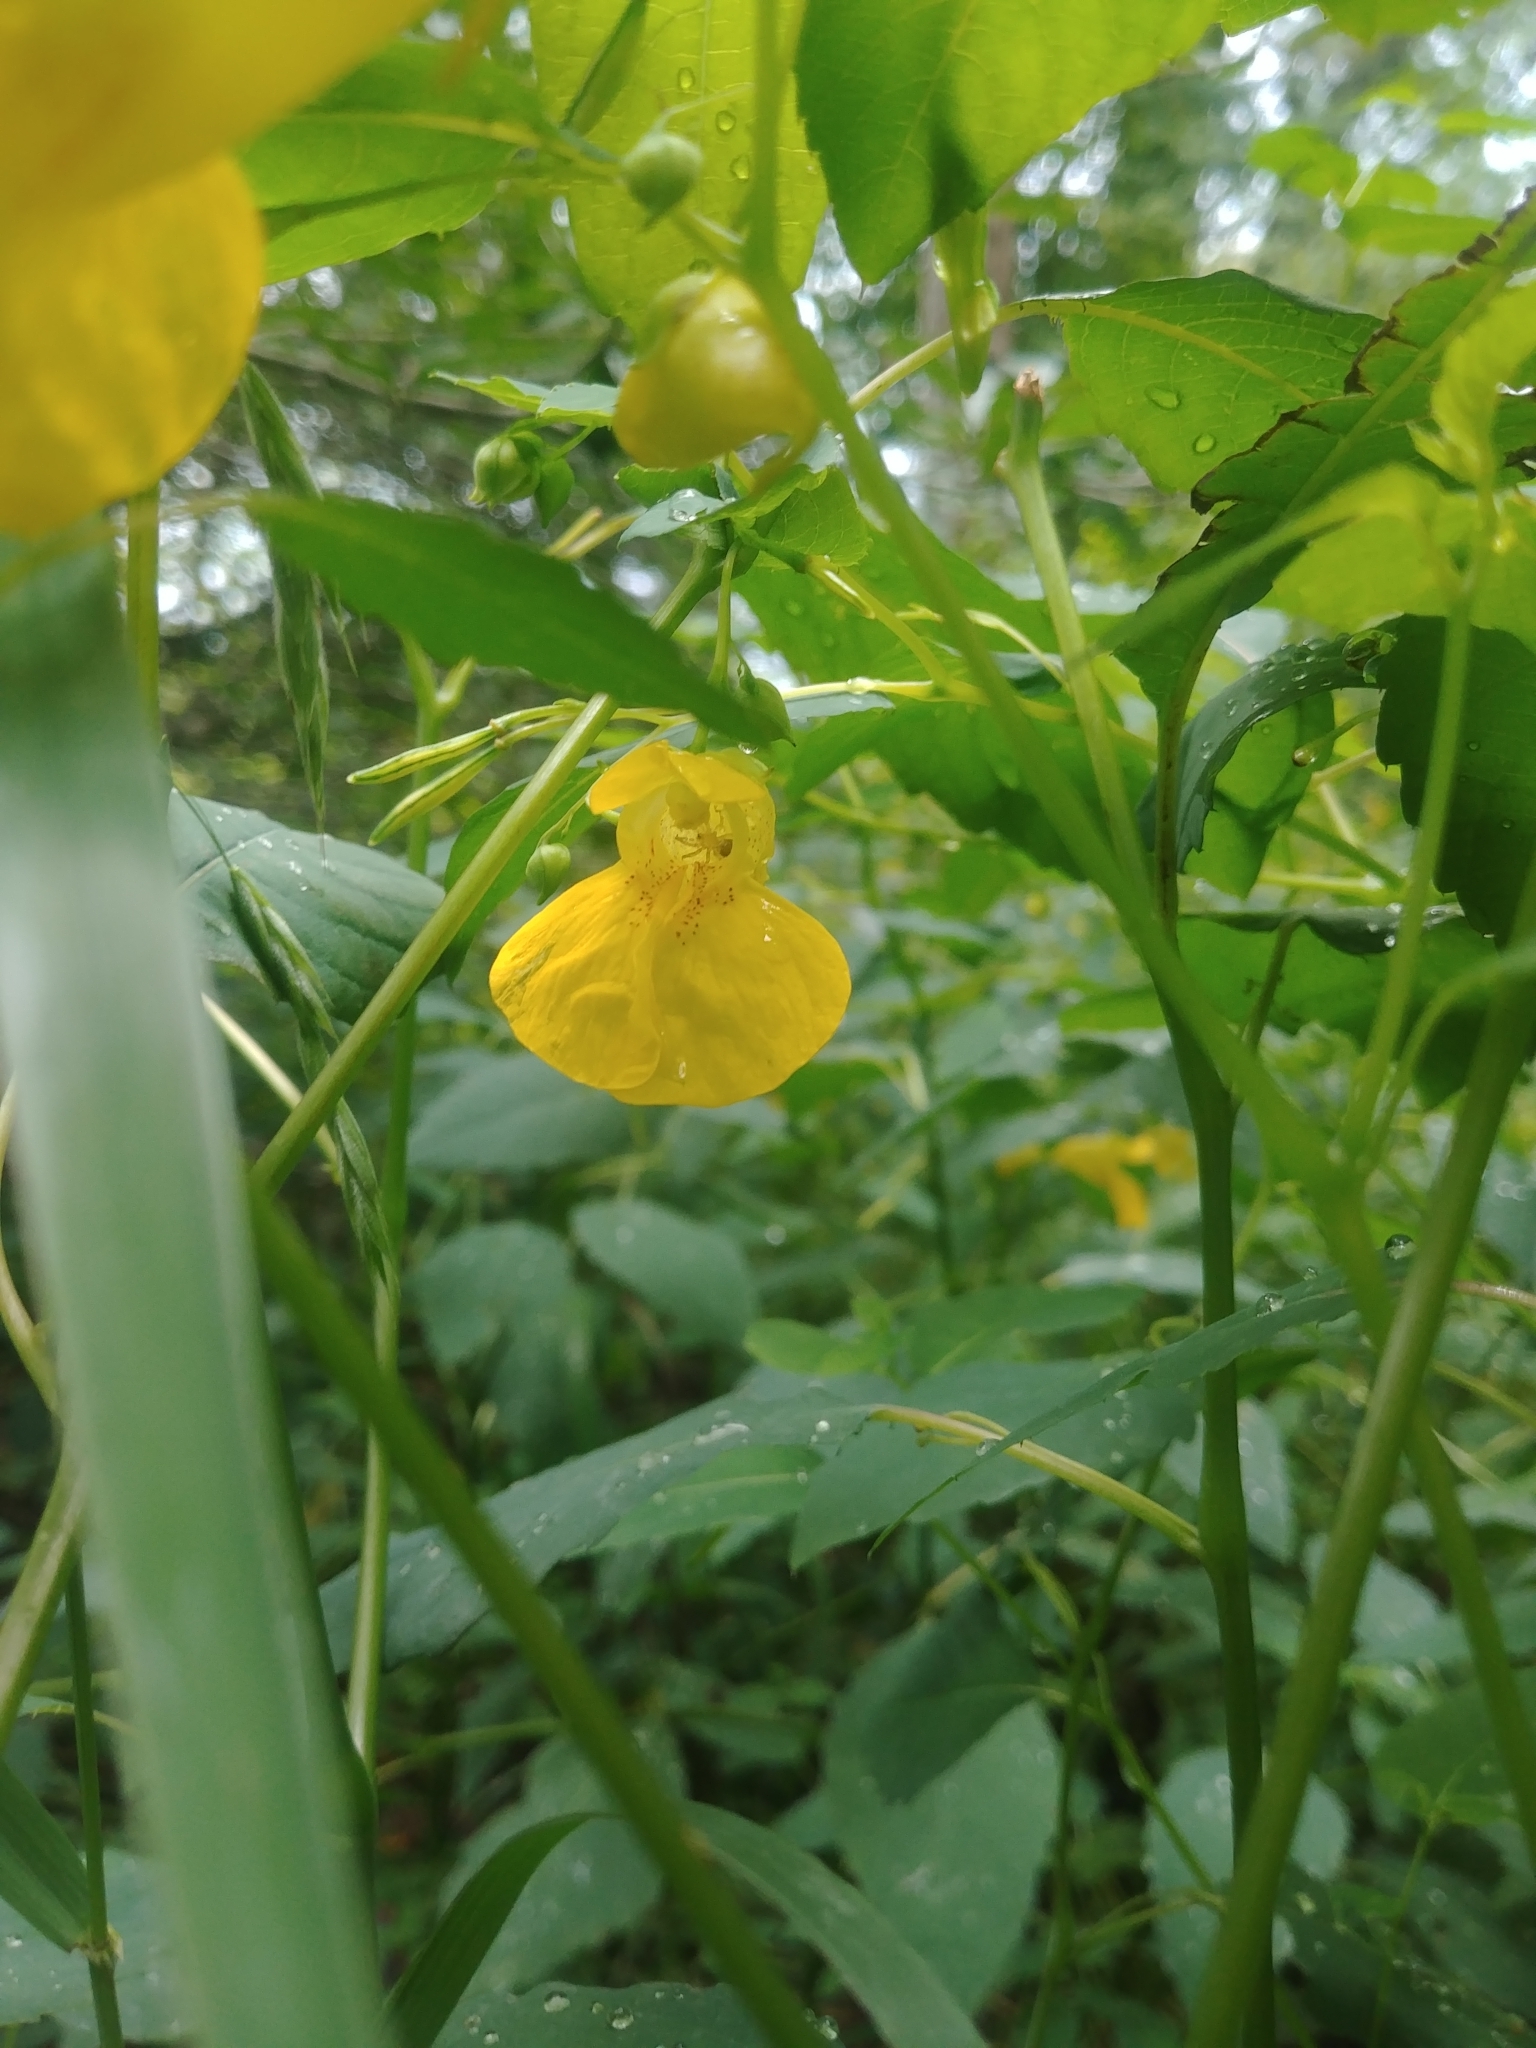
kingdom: Plantae
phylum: Tracheophyta
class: Magnoliopsida
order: Ericales
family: Balsaminaceae
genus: Impatiens
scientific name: Impatiens pallida
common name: Pale snapweed
